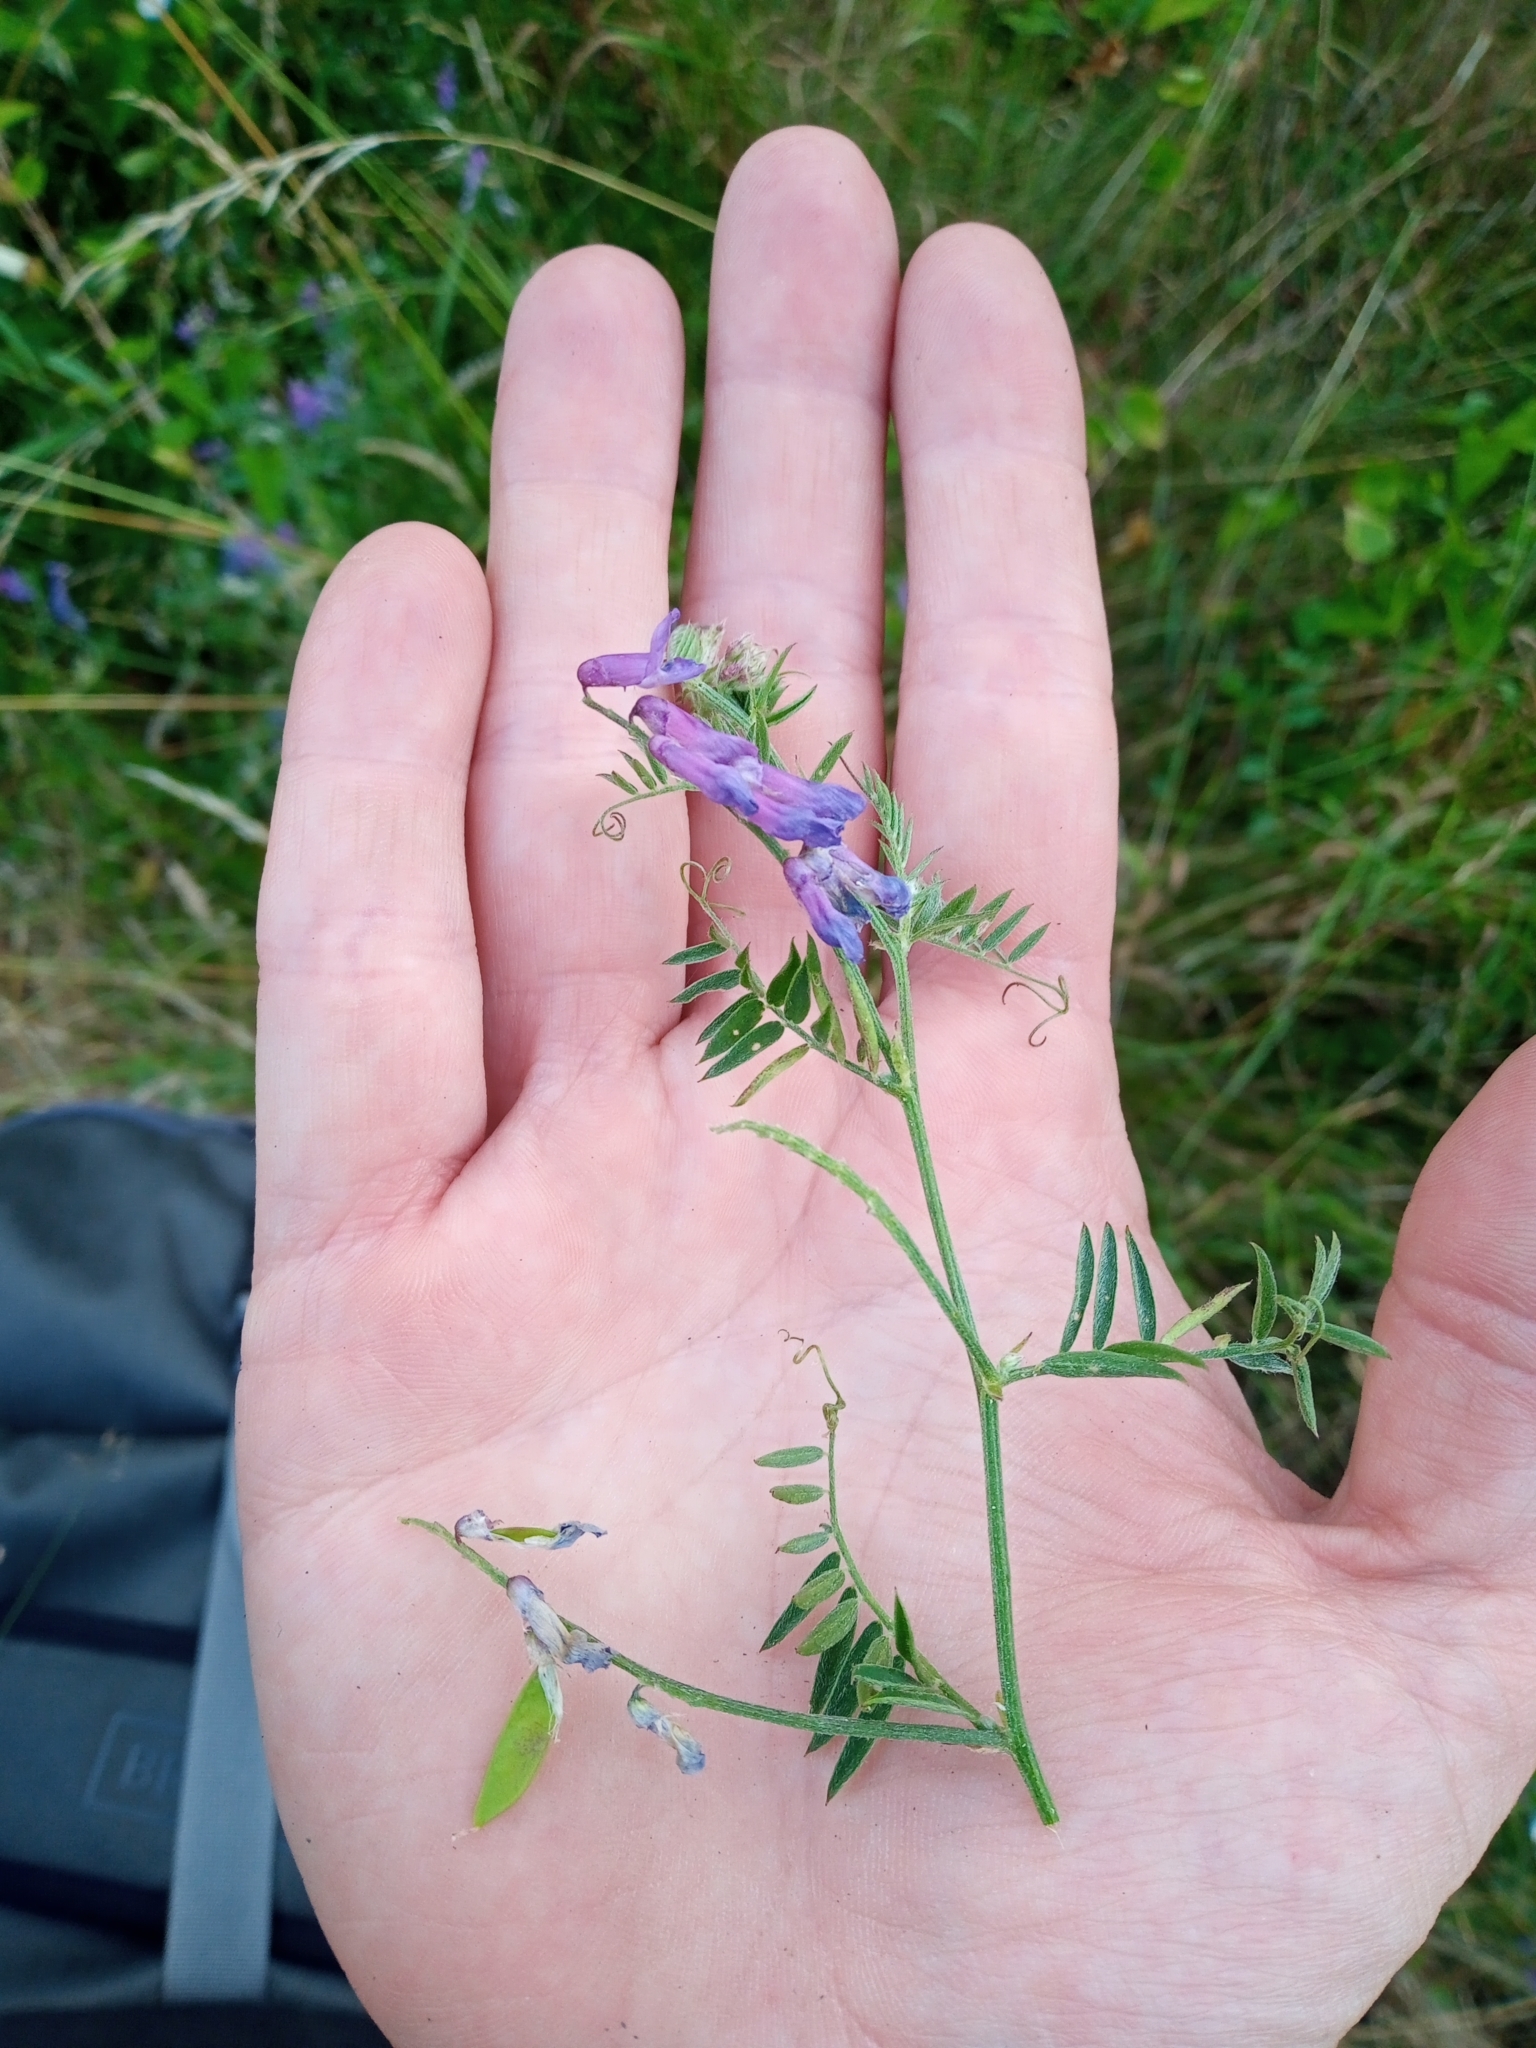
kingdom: Plantae
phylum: Tracheophyta
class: Magnoliopsida
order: Fabales
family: Fabaceae
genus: Vicia
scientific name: Vicia cracca
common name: Bird vetch
